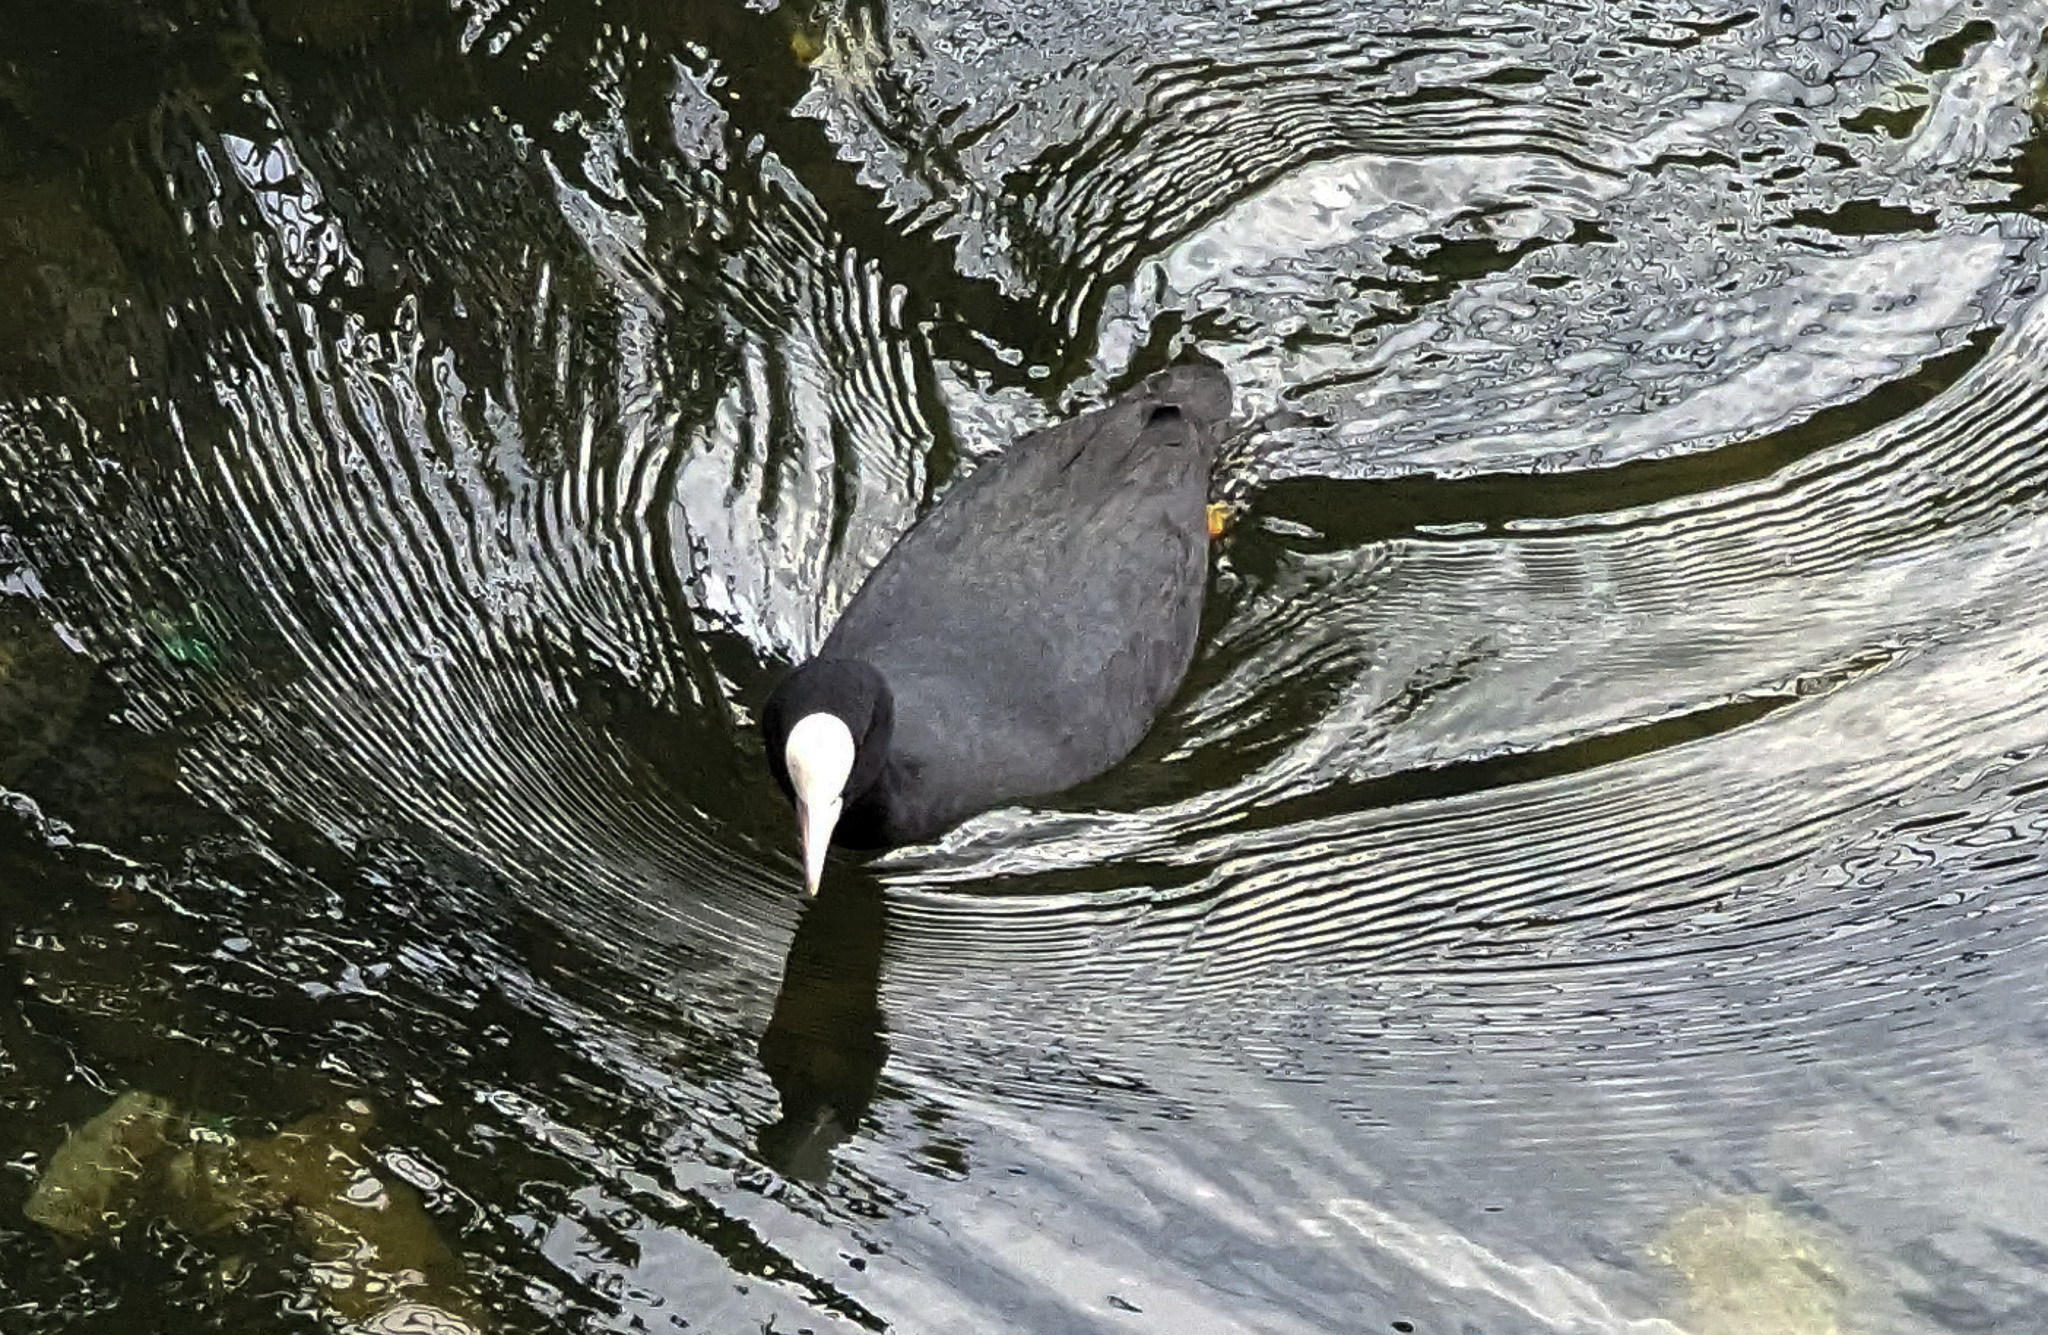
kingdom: Animalia
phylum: Chordata
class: Aves
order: Gruiformes
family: Rallidae
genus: Fulica
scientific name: Fulica atra
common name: Eurasian coot
